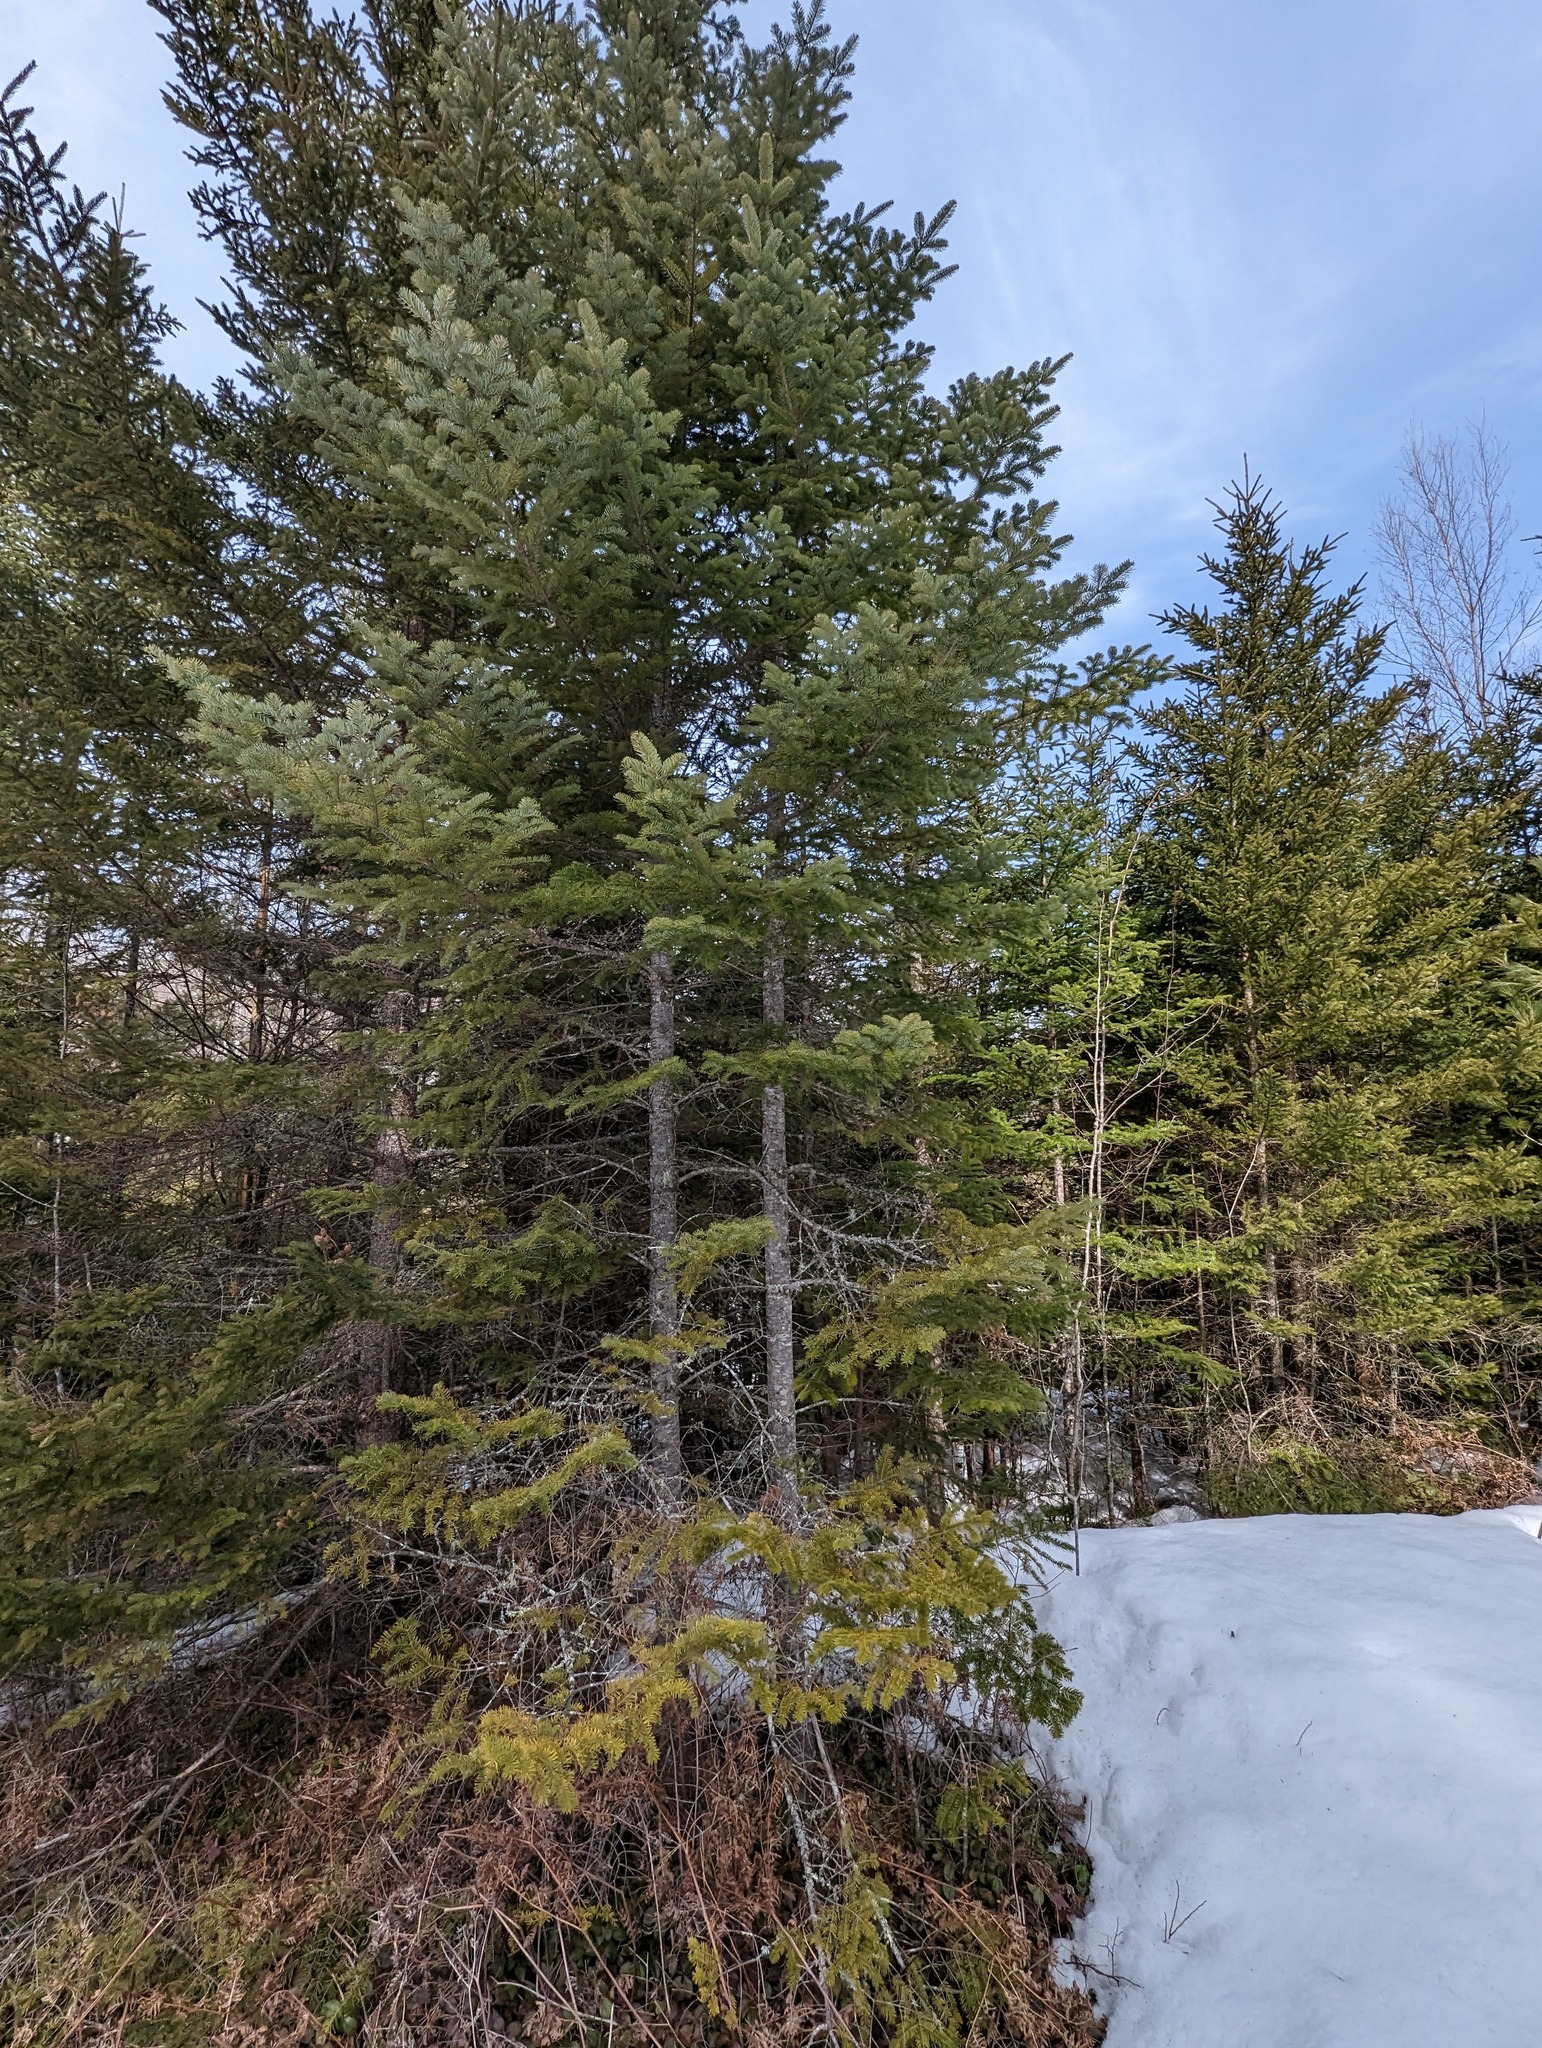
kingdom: Plantae
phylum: Tracheophyta
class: Pinopsida
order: Pinales
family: Pinaceae
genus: Abies
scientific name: Abies balsamea
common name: Balsam fir
